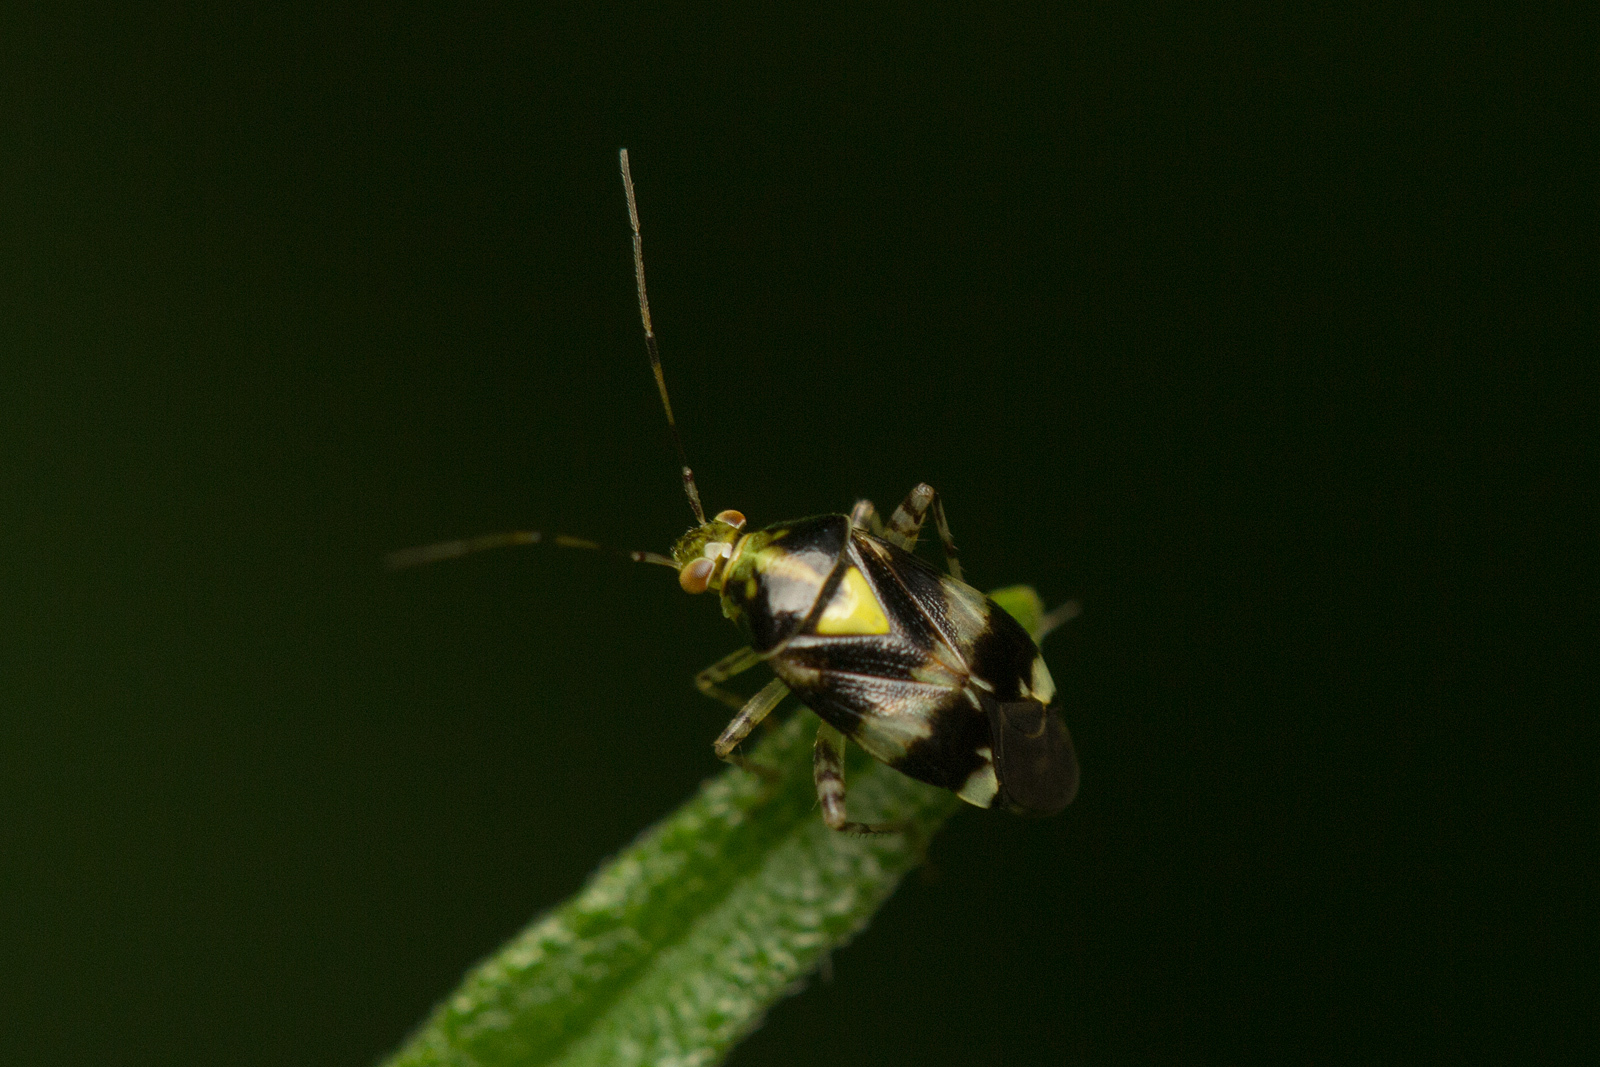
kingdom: Animalia
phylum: Arthropoda
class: Insecta
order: Hemiptera
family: Miridae
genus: Liocoris
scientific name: Liocoris tripustulatus
